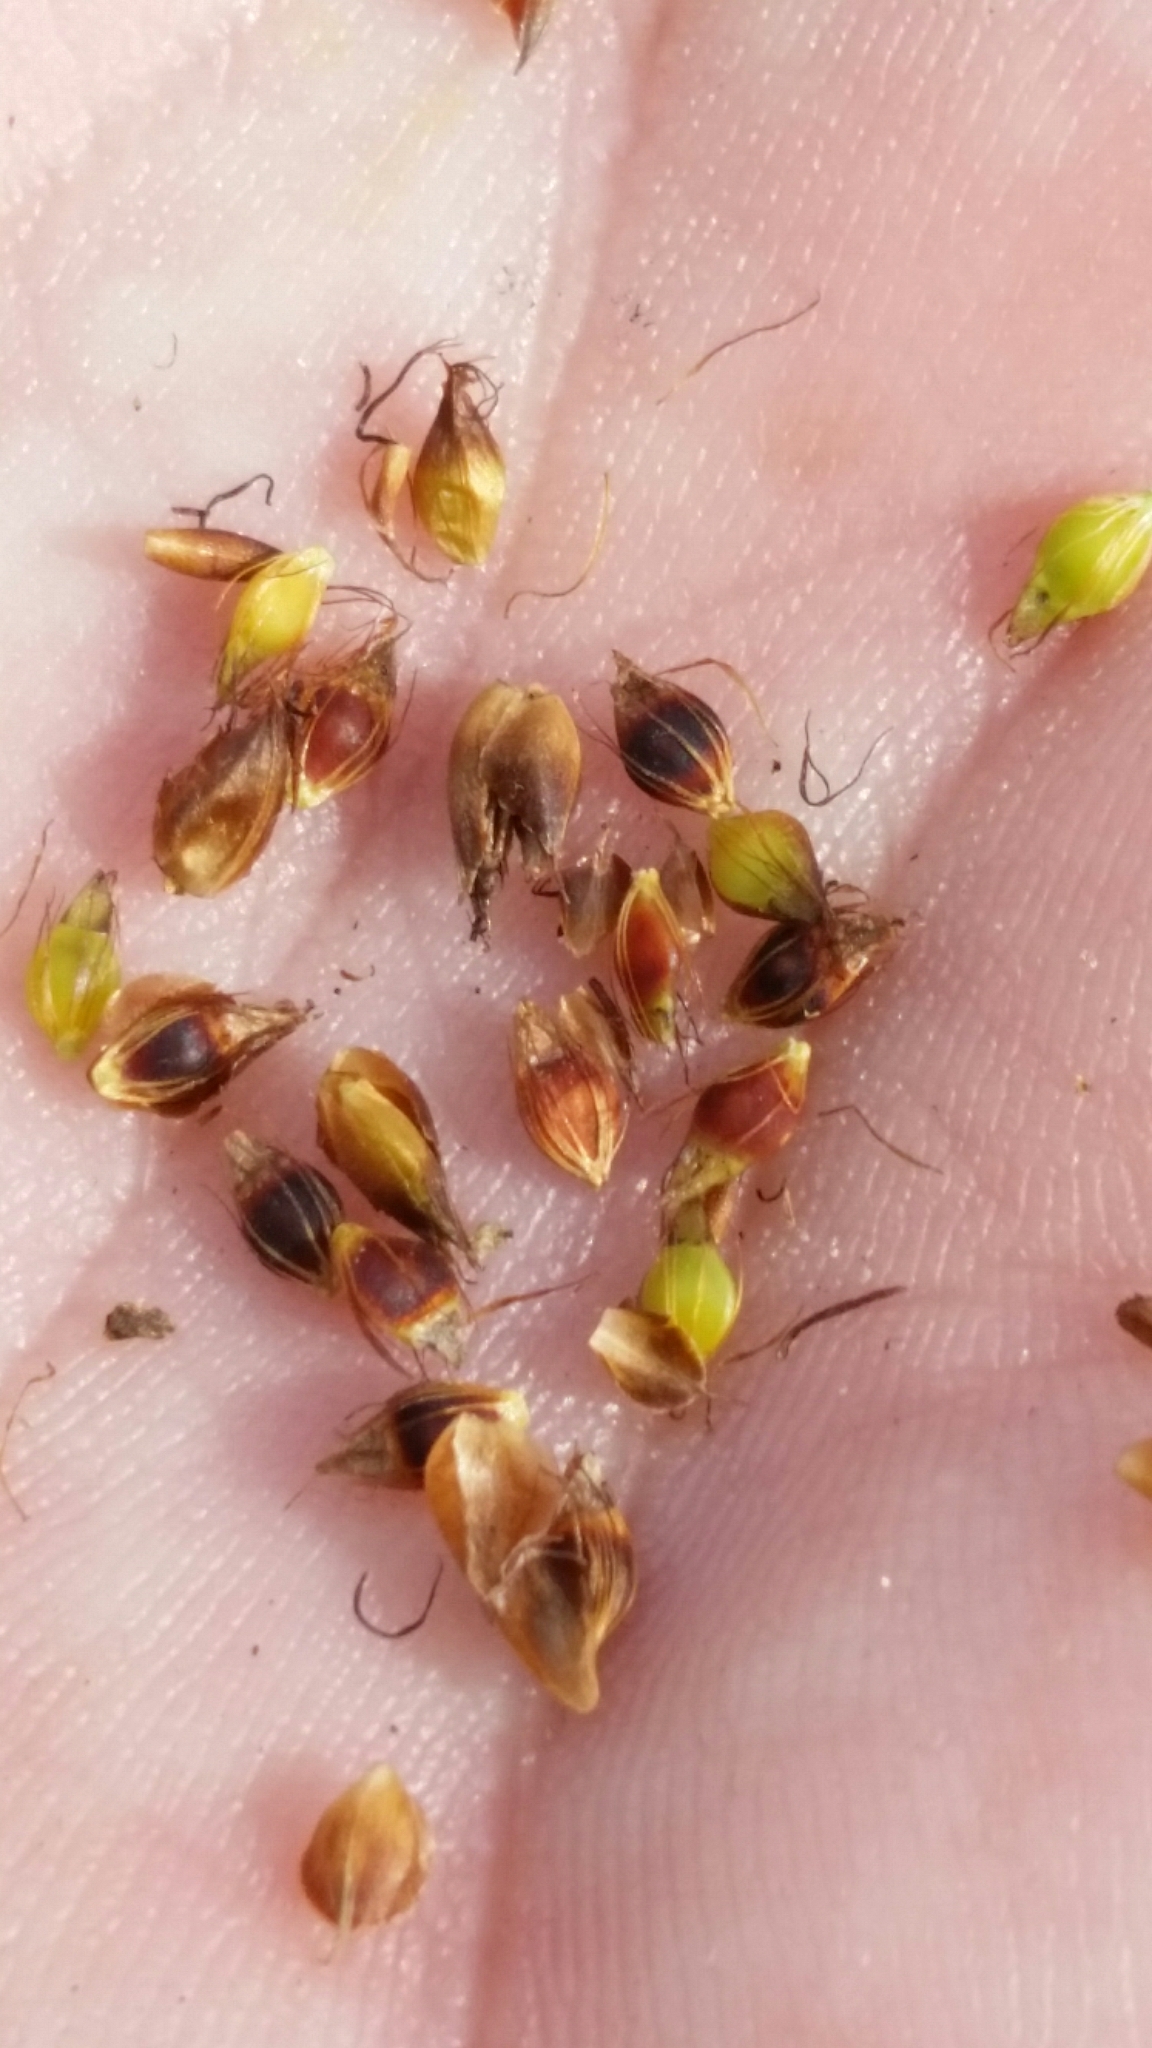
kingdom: Plantae
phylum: Tracheophyta
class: Liliopsida
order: Poales
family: Cyperaceae
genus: Rhynchospora
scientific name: Rhynchospora baldwinii
